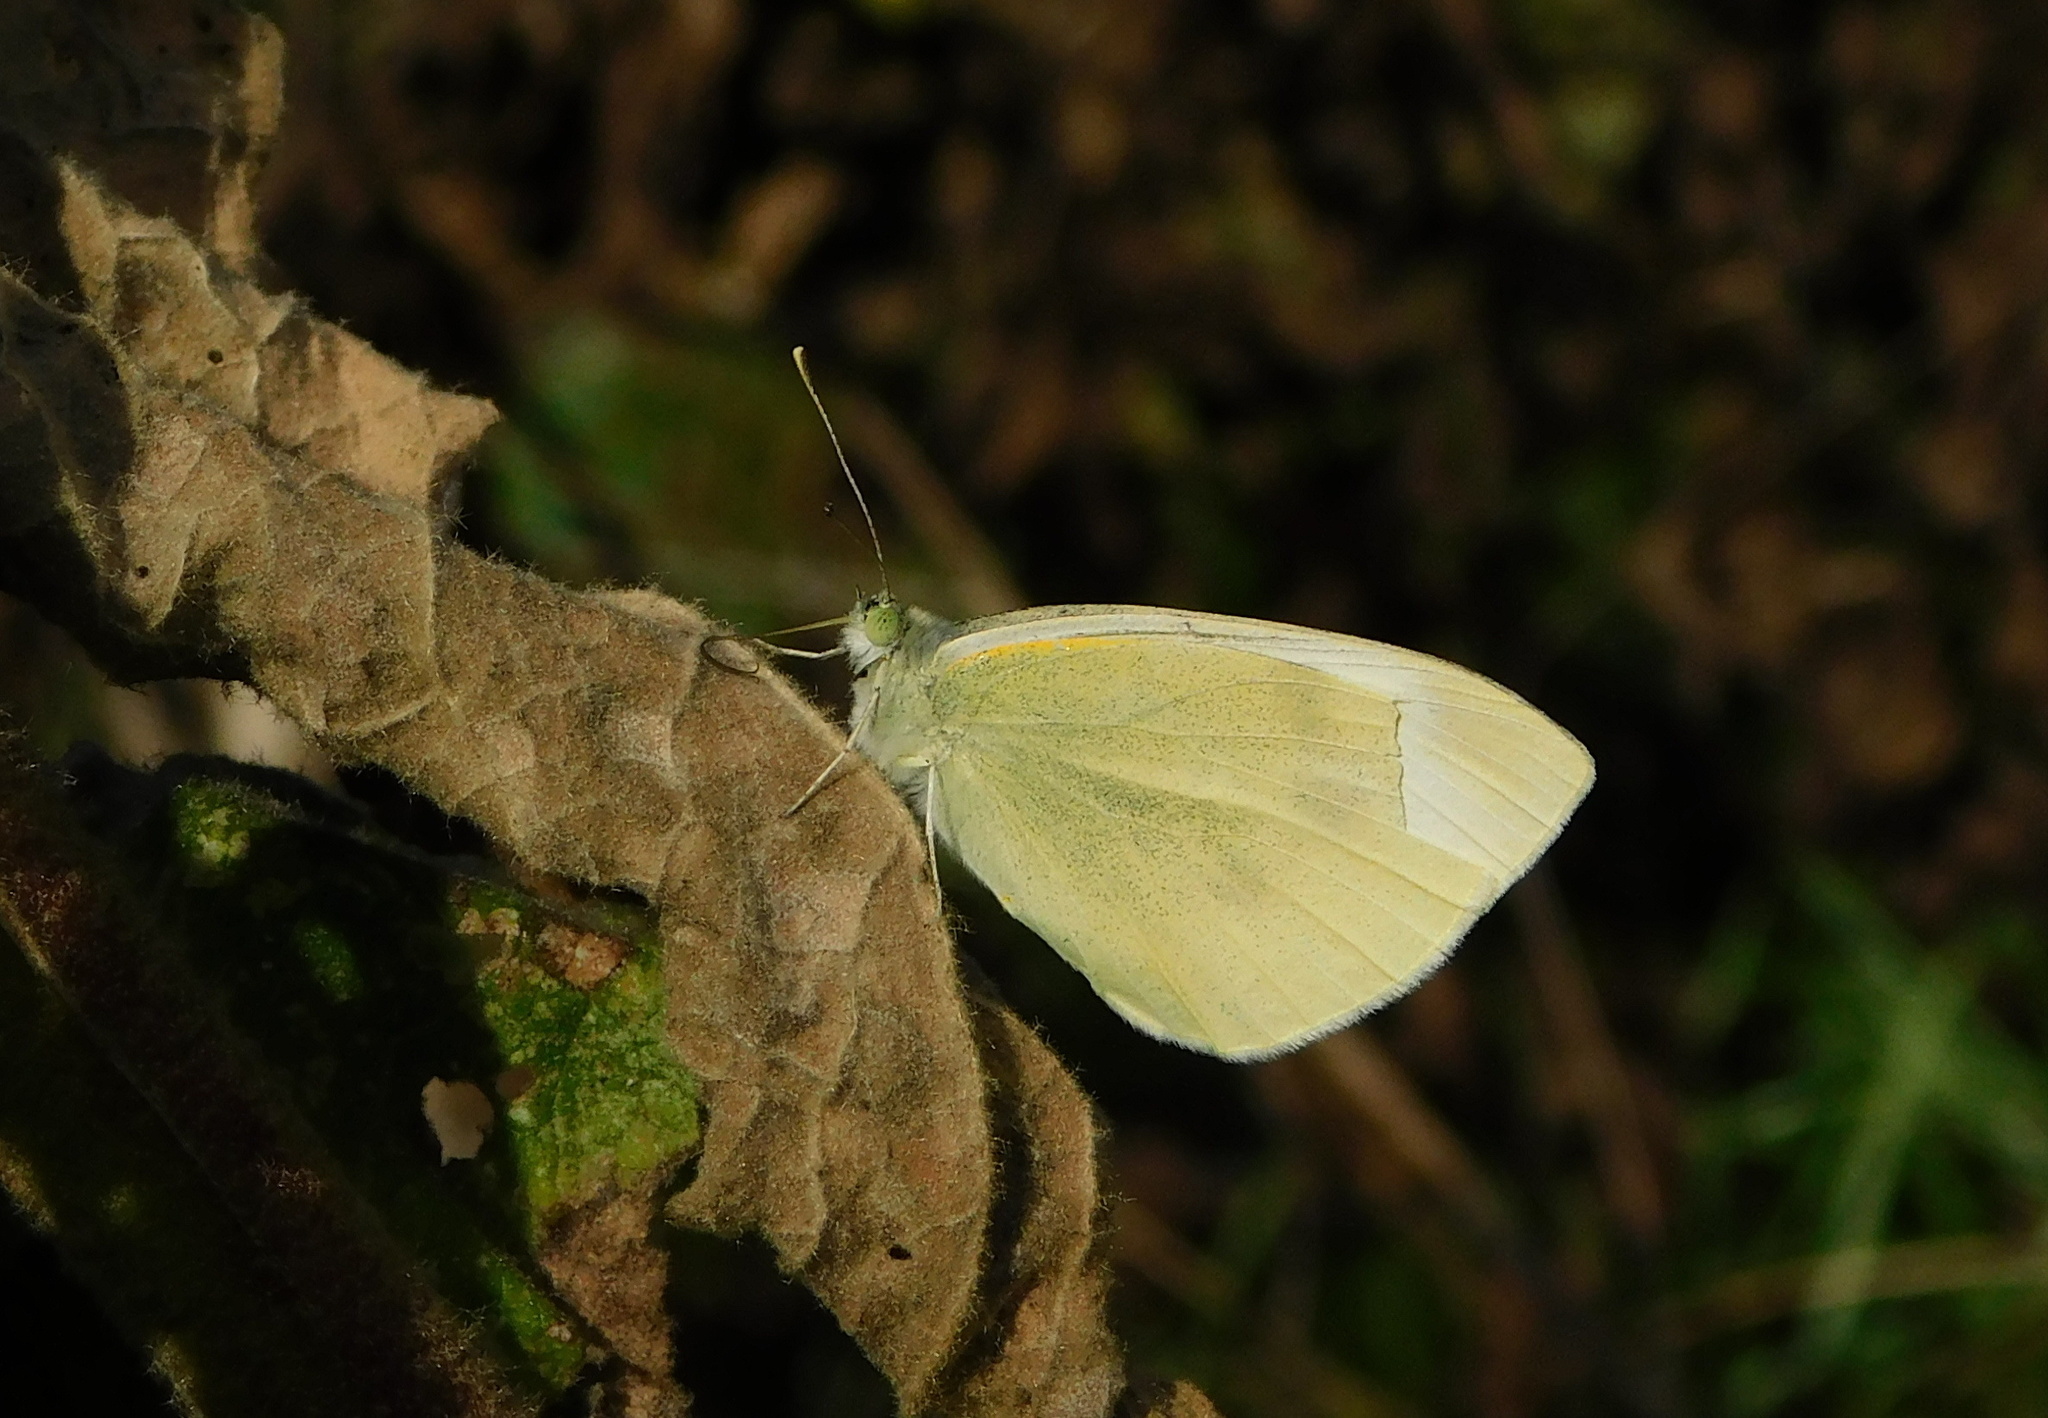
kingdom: Animalia
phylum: Arthropoda
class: Insecta
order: Lepidoptera
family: Pieridae
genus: Pieris
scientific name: Pieris rapae
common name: Small white
